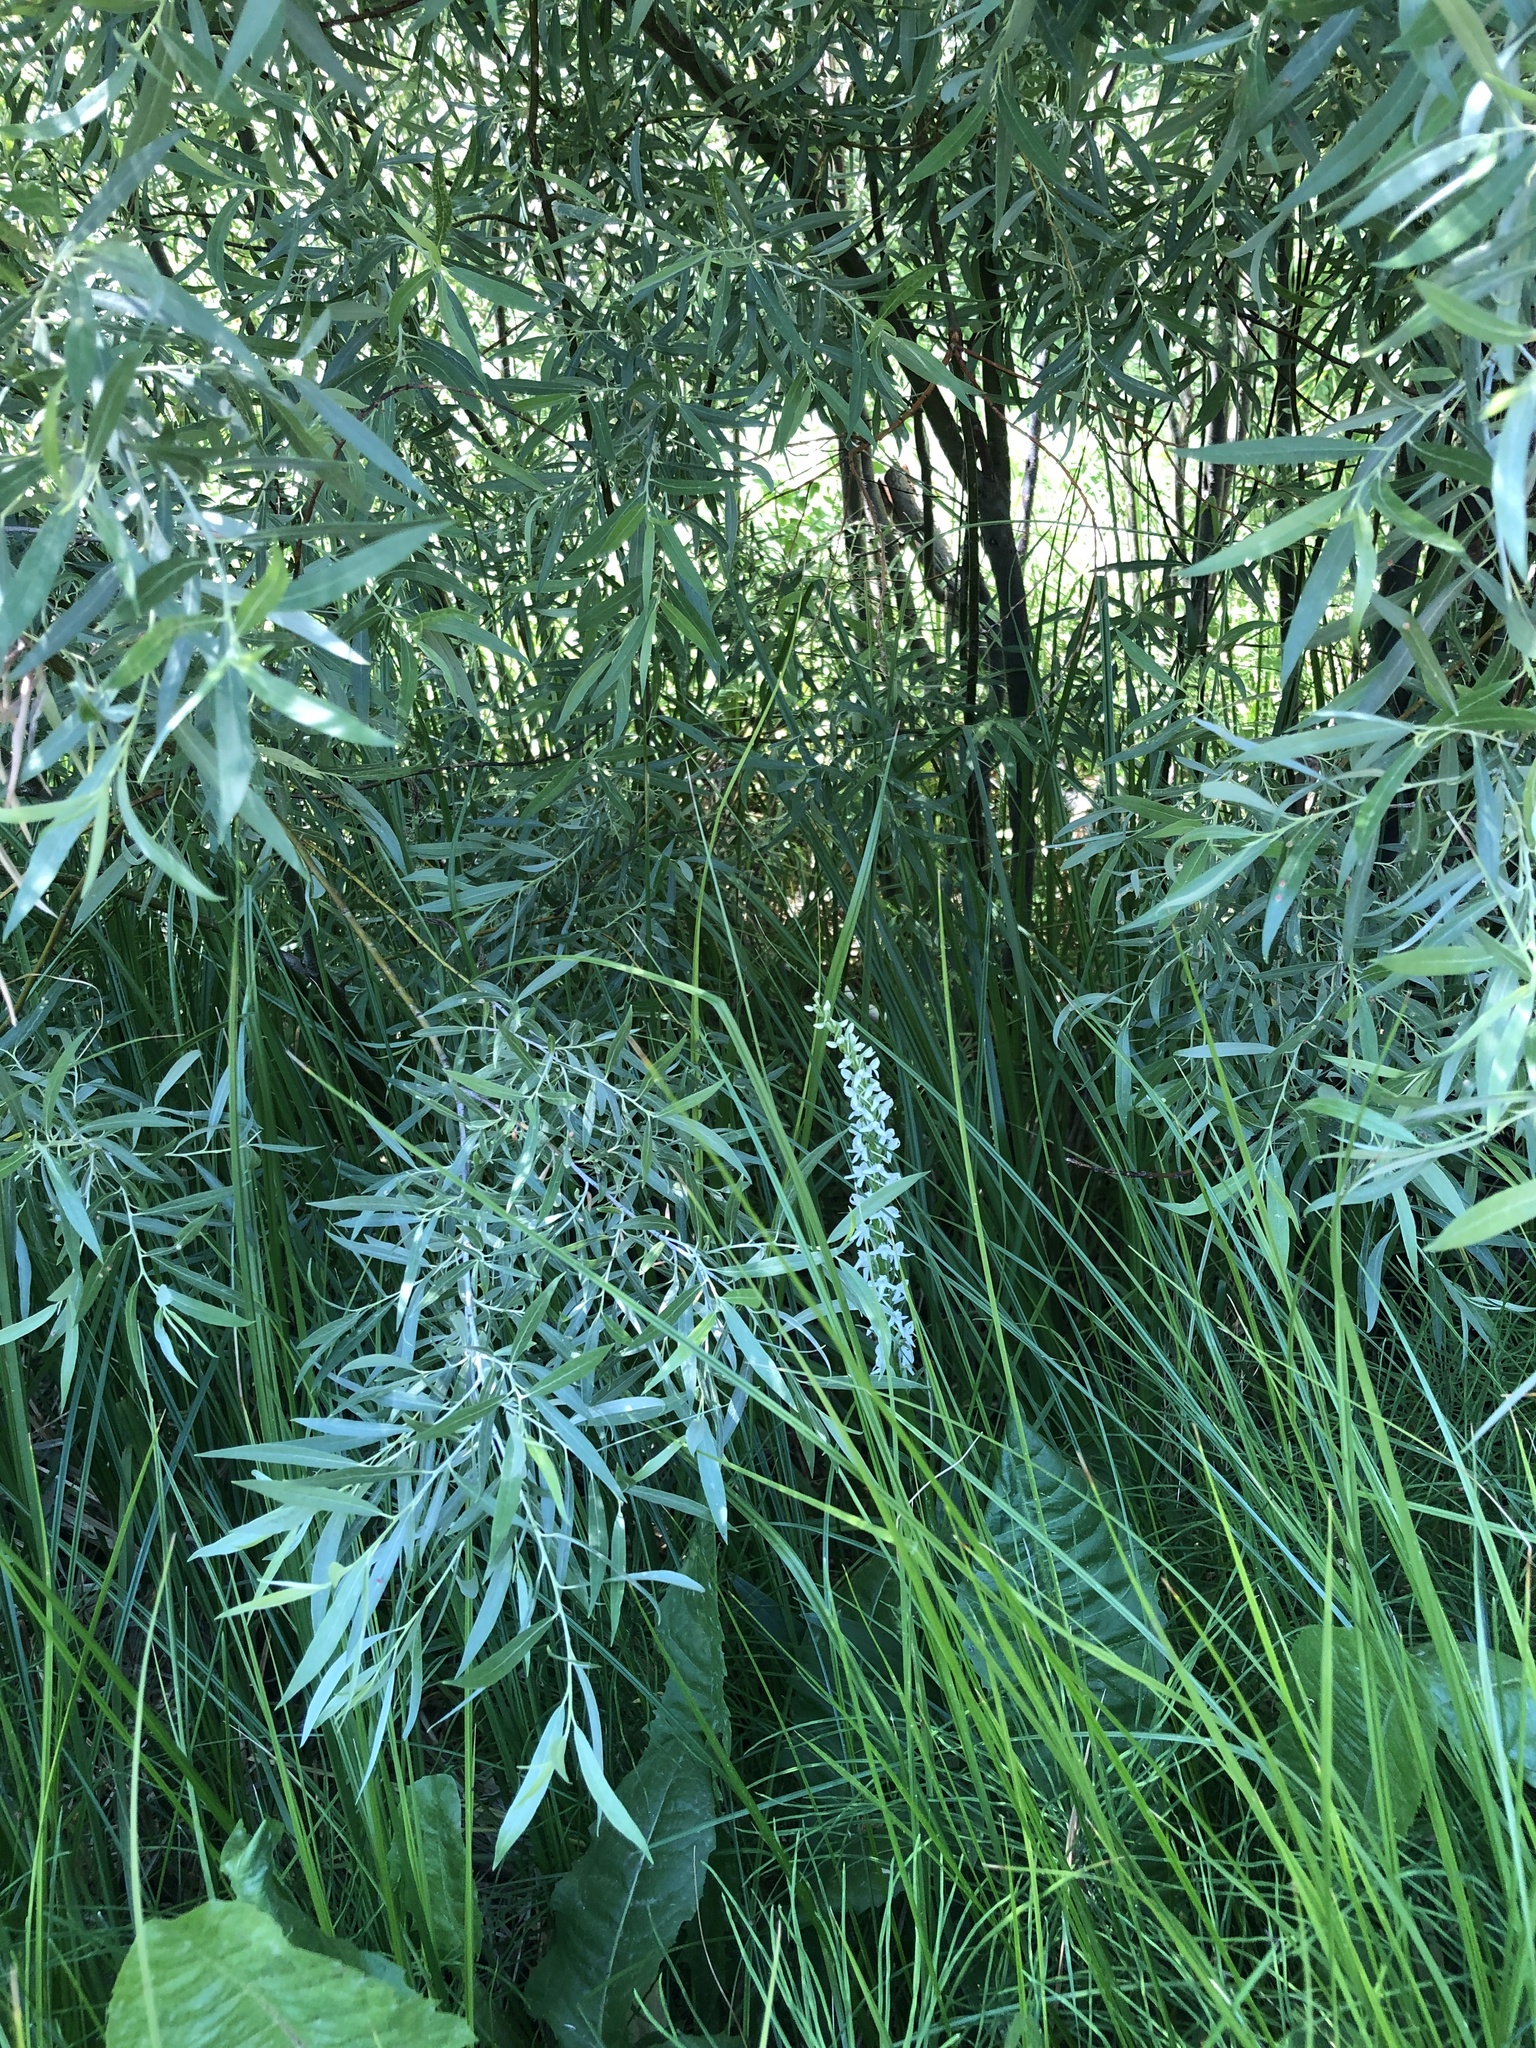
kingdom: Plantae
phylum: Tracheophyta
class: Liliopsida
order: Asparagales
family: Orchidaceae
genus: Platanthera
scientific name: Platanthera dilatata
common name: Bog candles
